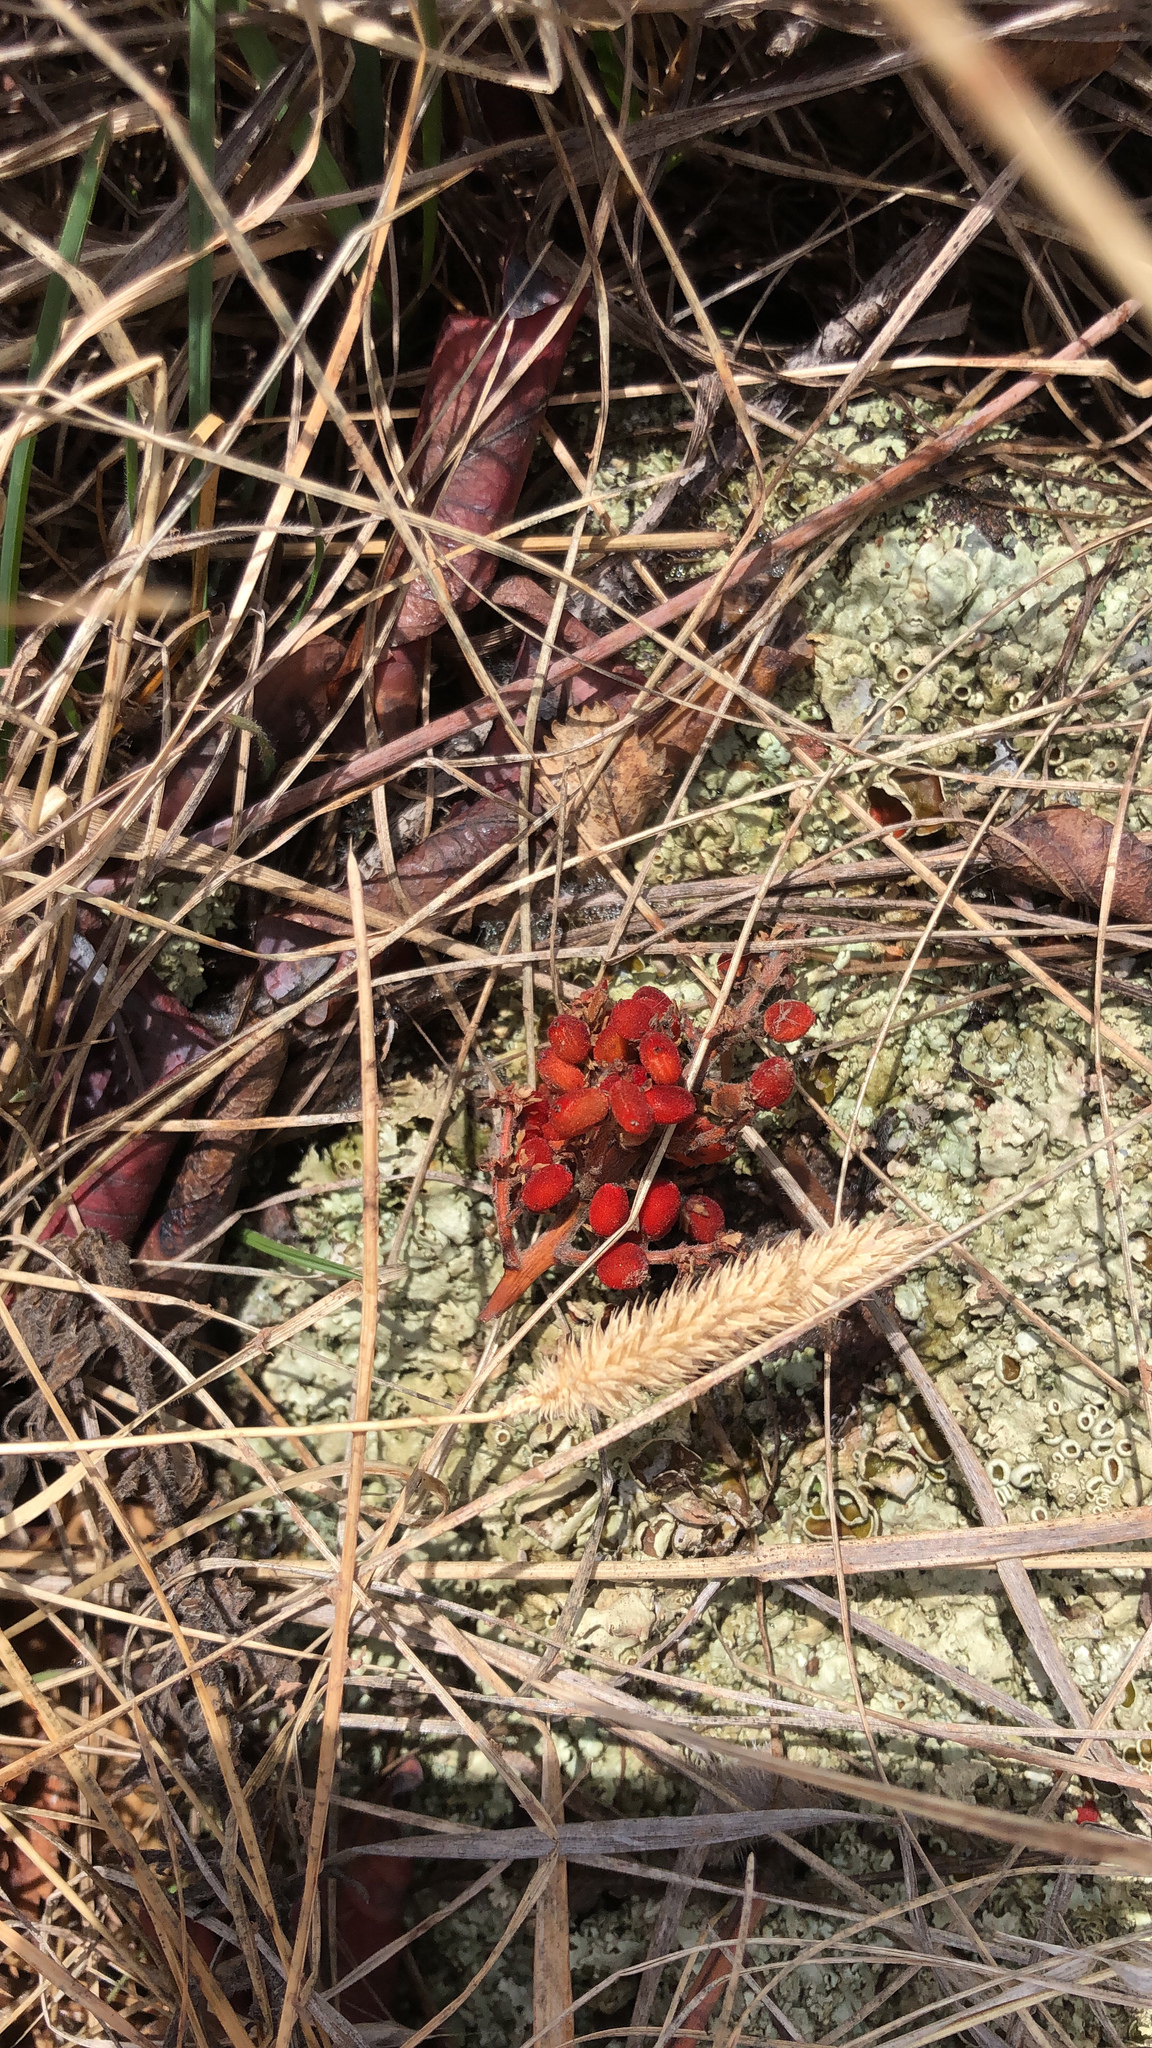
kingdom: Plantae
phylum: Tracheophyta
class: Magnoliopsida
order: Sapindales
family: Anacardiaceae
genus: Rhus
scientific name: Rhus
